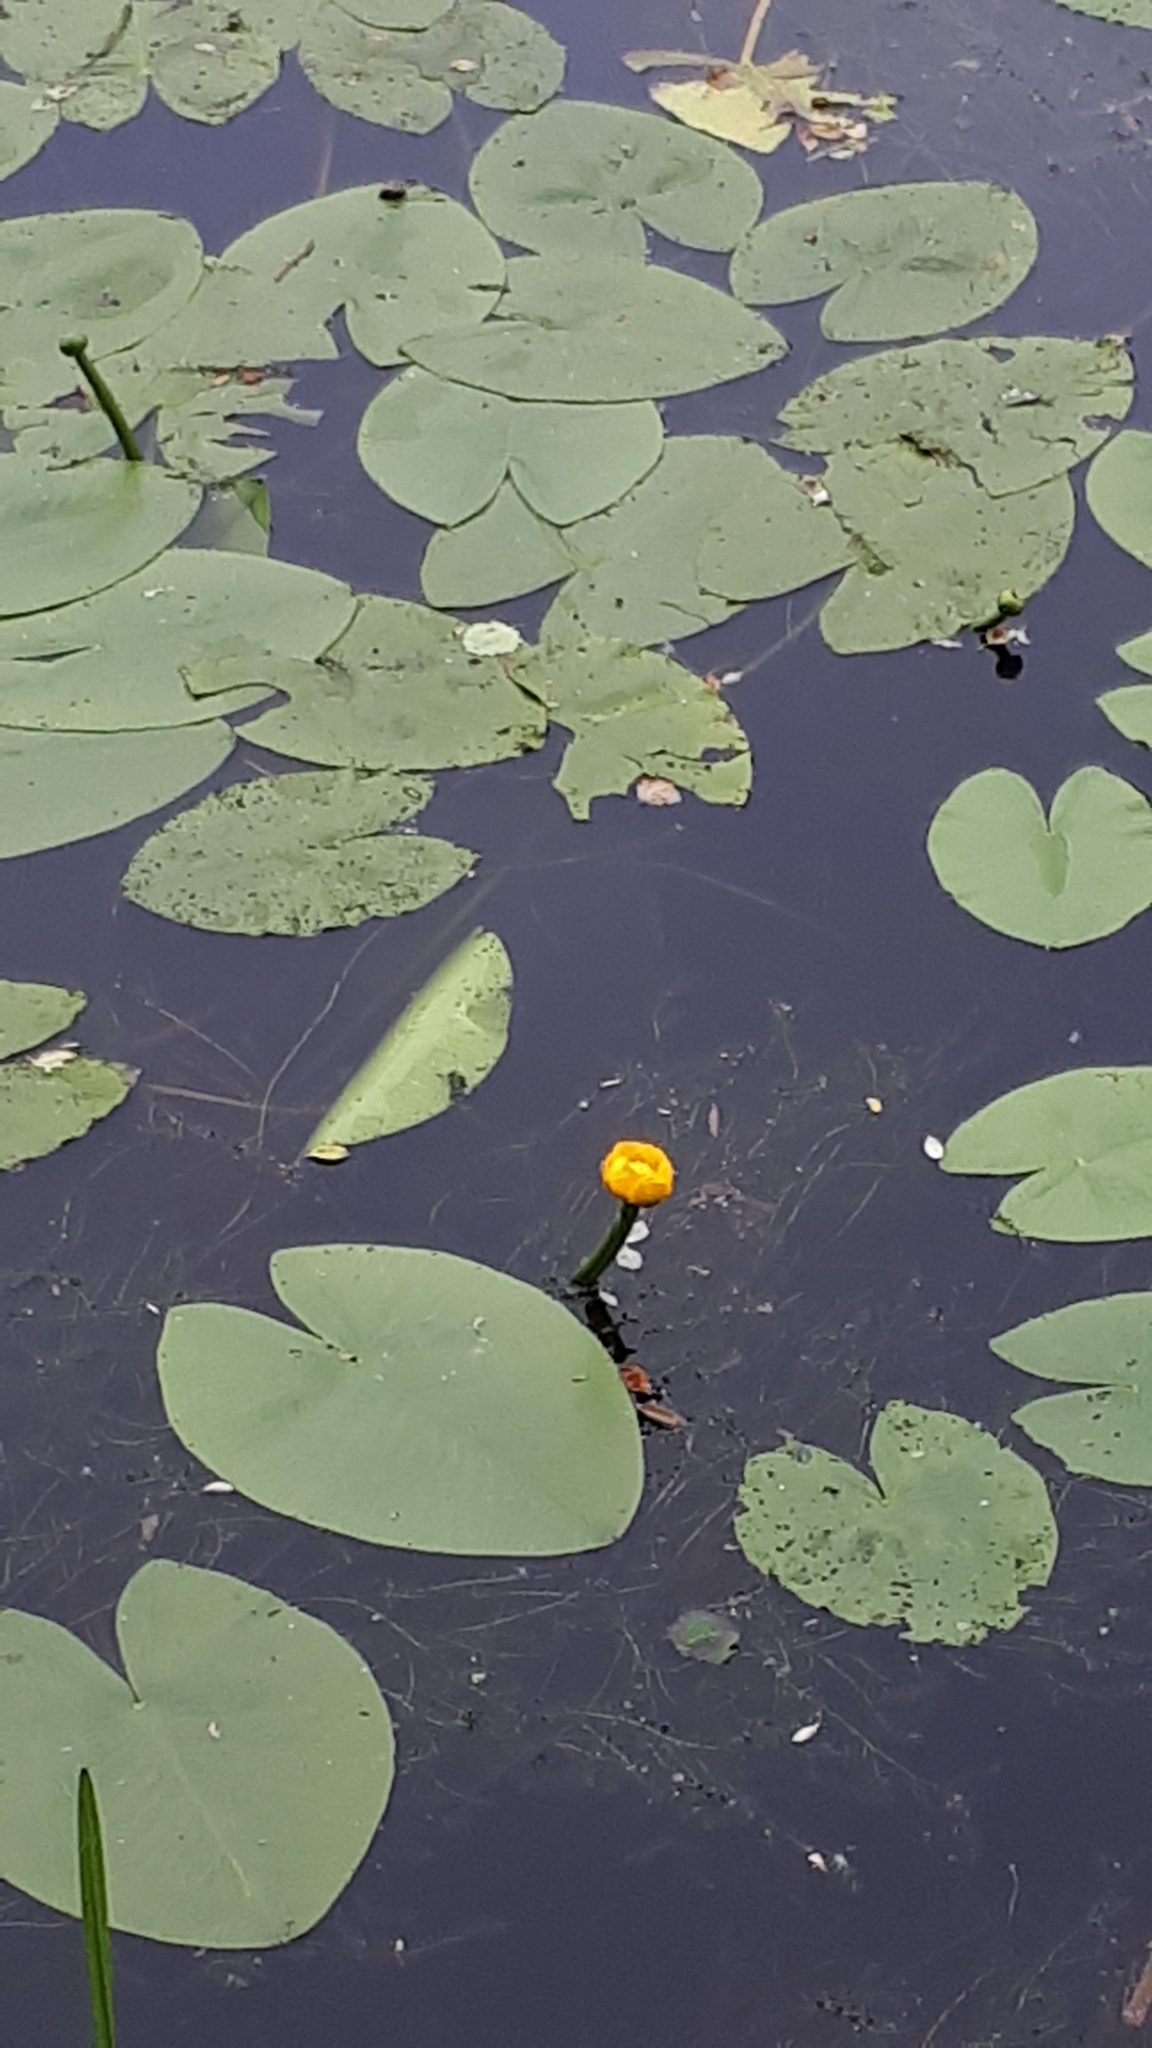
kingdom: Plantae
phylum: Tracheophyta
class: Magnoliopsida
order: Nymphaeales
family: Nymphaeaceae
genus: Nuphar
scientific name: Nuphar lutea
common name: Yellow water-lily
